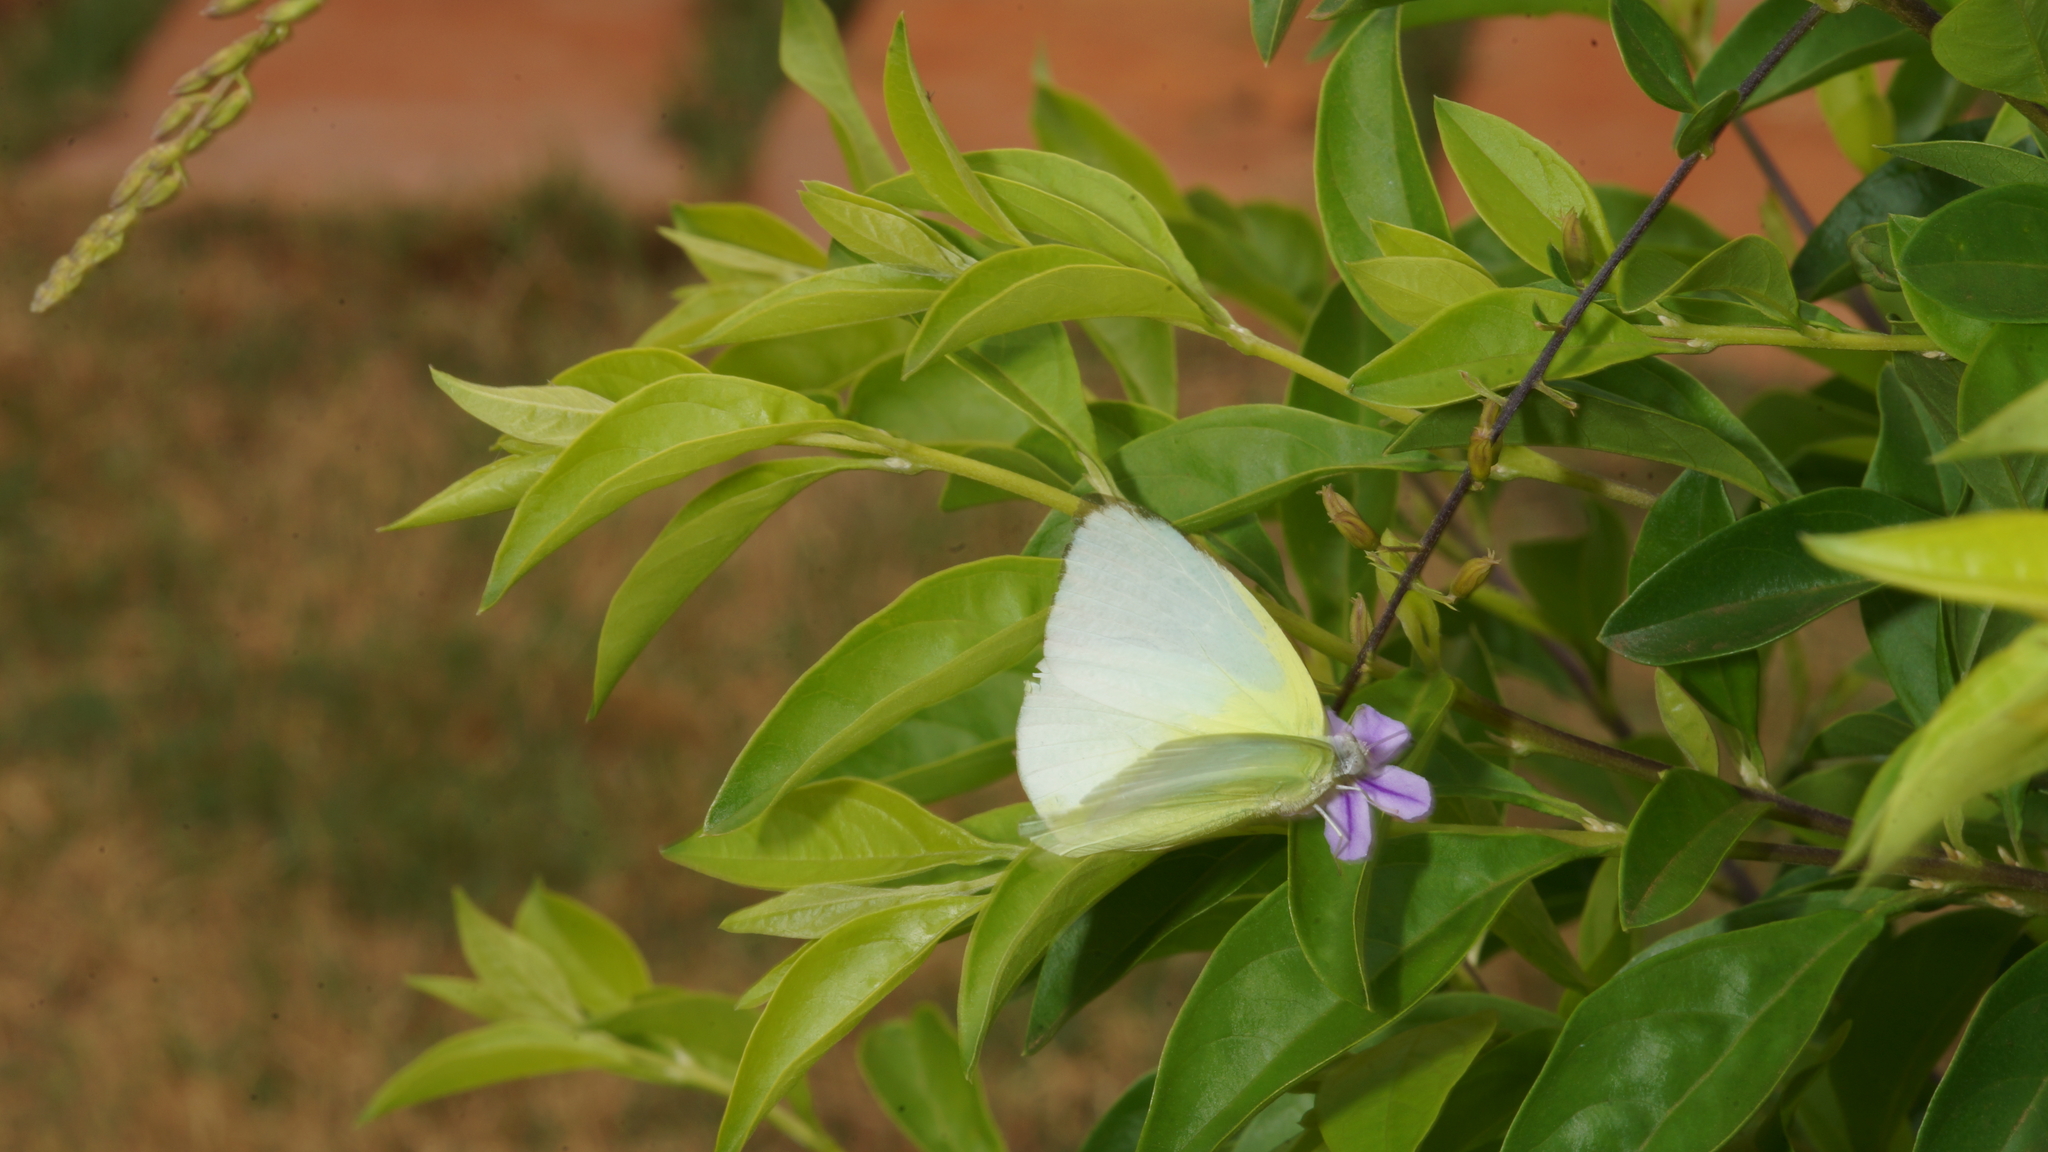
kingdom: Animalia
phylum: Arthropoda
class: Insecta
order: Lepidoptera
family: Pieridae
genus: Catopsilia
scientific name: Catopsilia pomona
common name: Common emigrant
